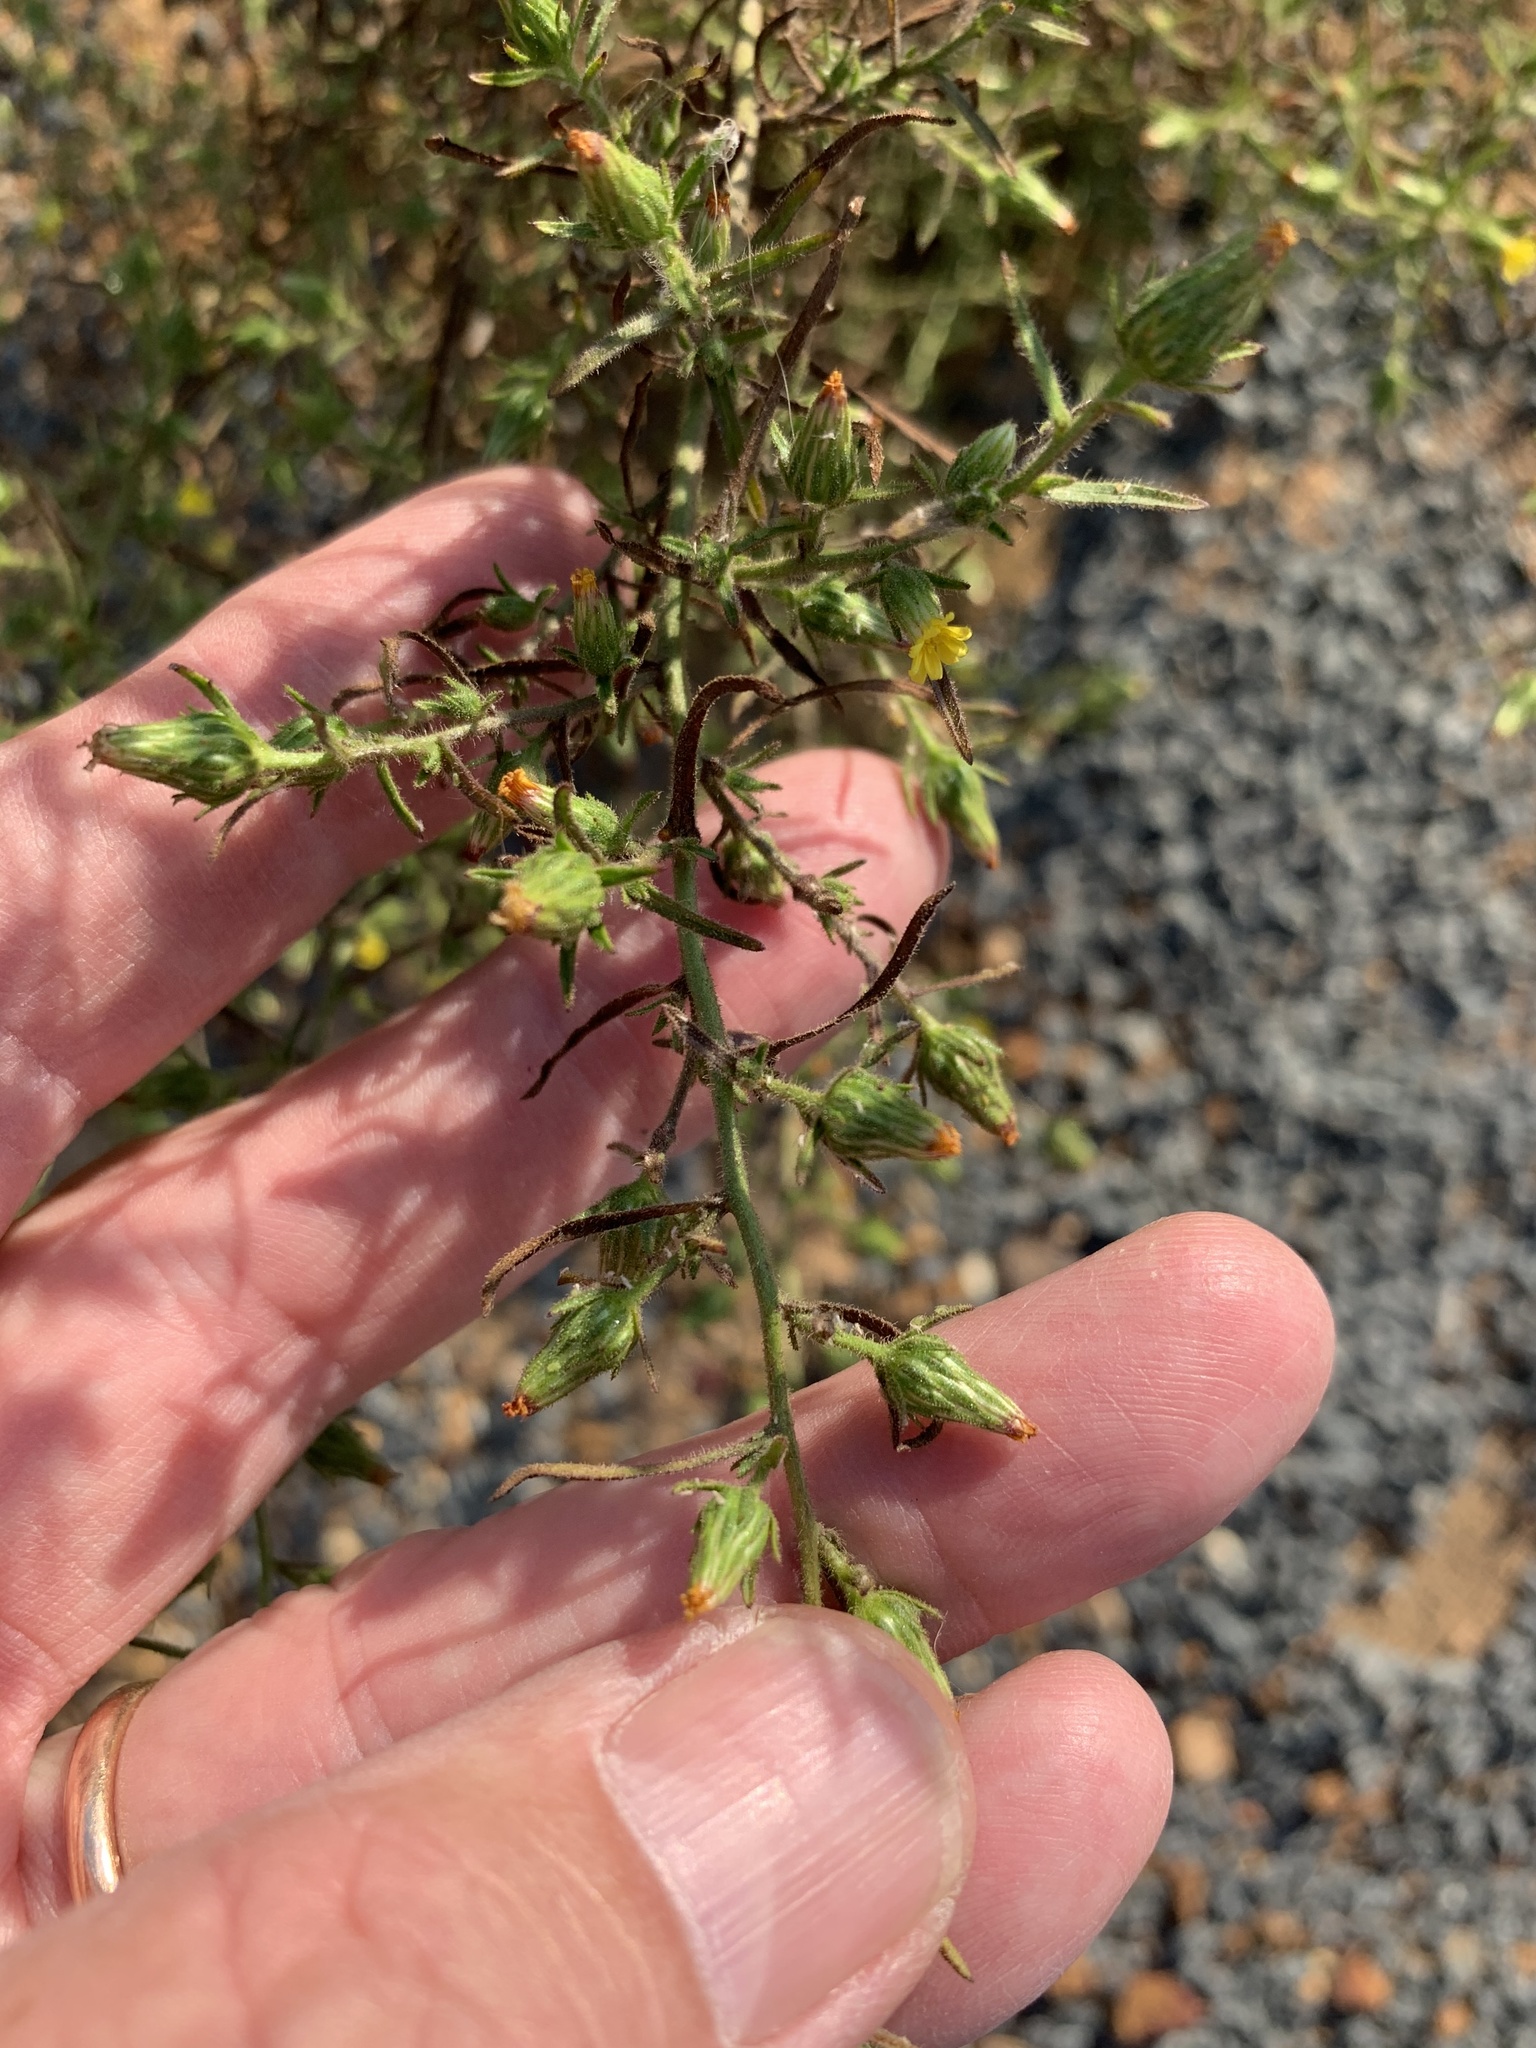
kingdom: Plantae
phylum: Tracheophyta
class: Magnoliopsida
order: Asterales
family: Asteraceae
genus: Dittrichia
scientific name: Dittrichia graveolens
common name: Stinking fleabane
